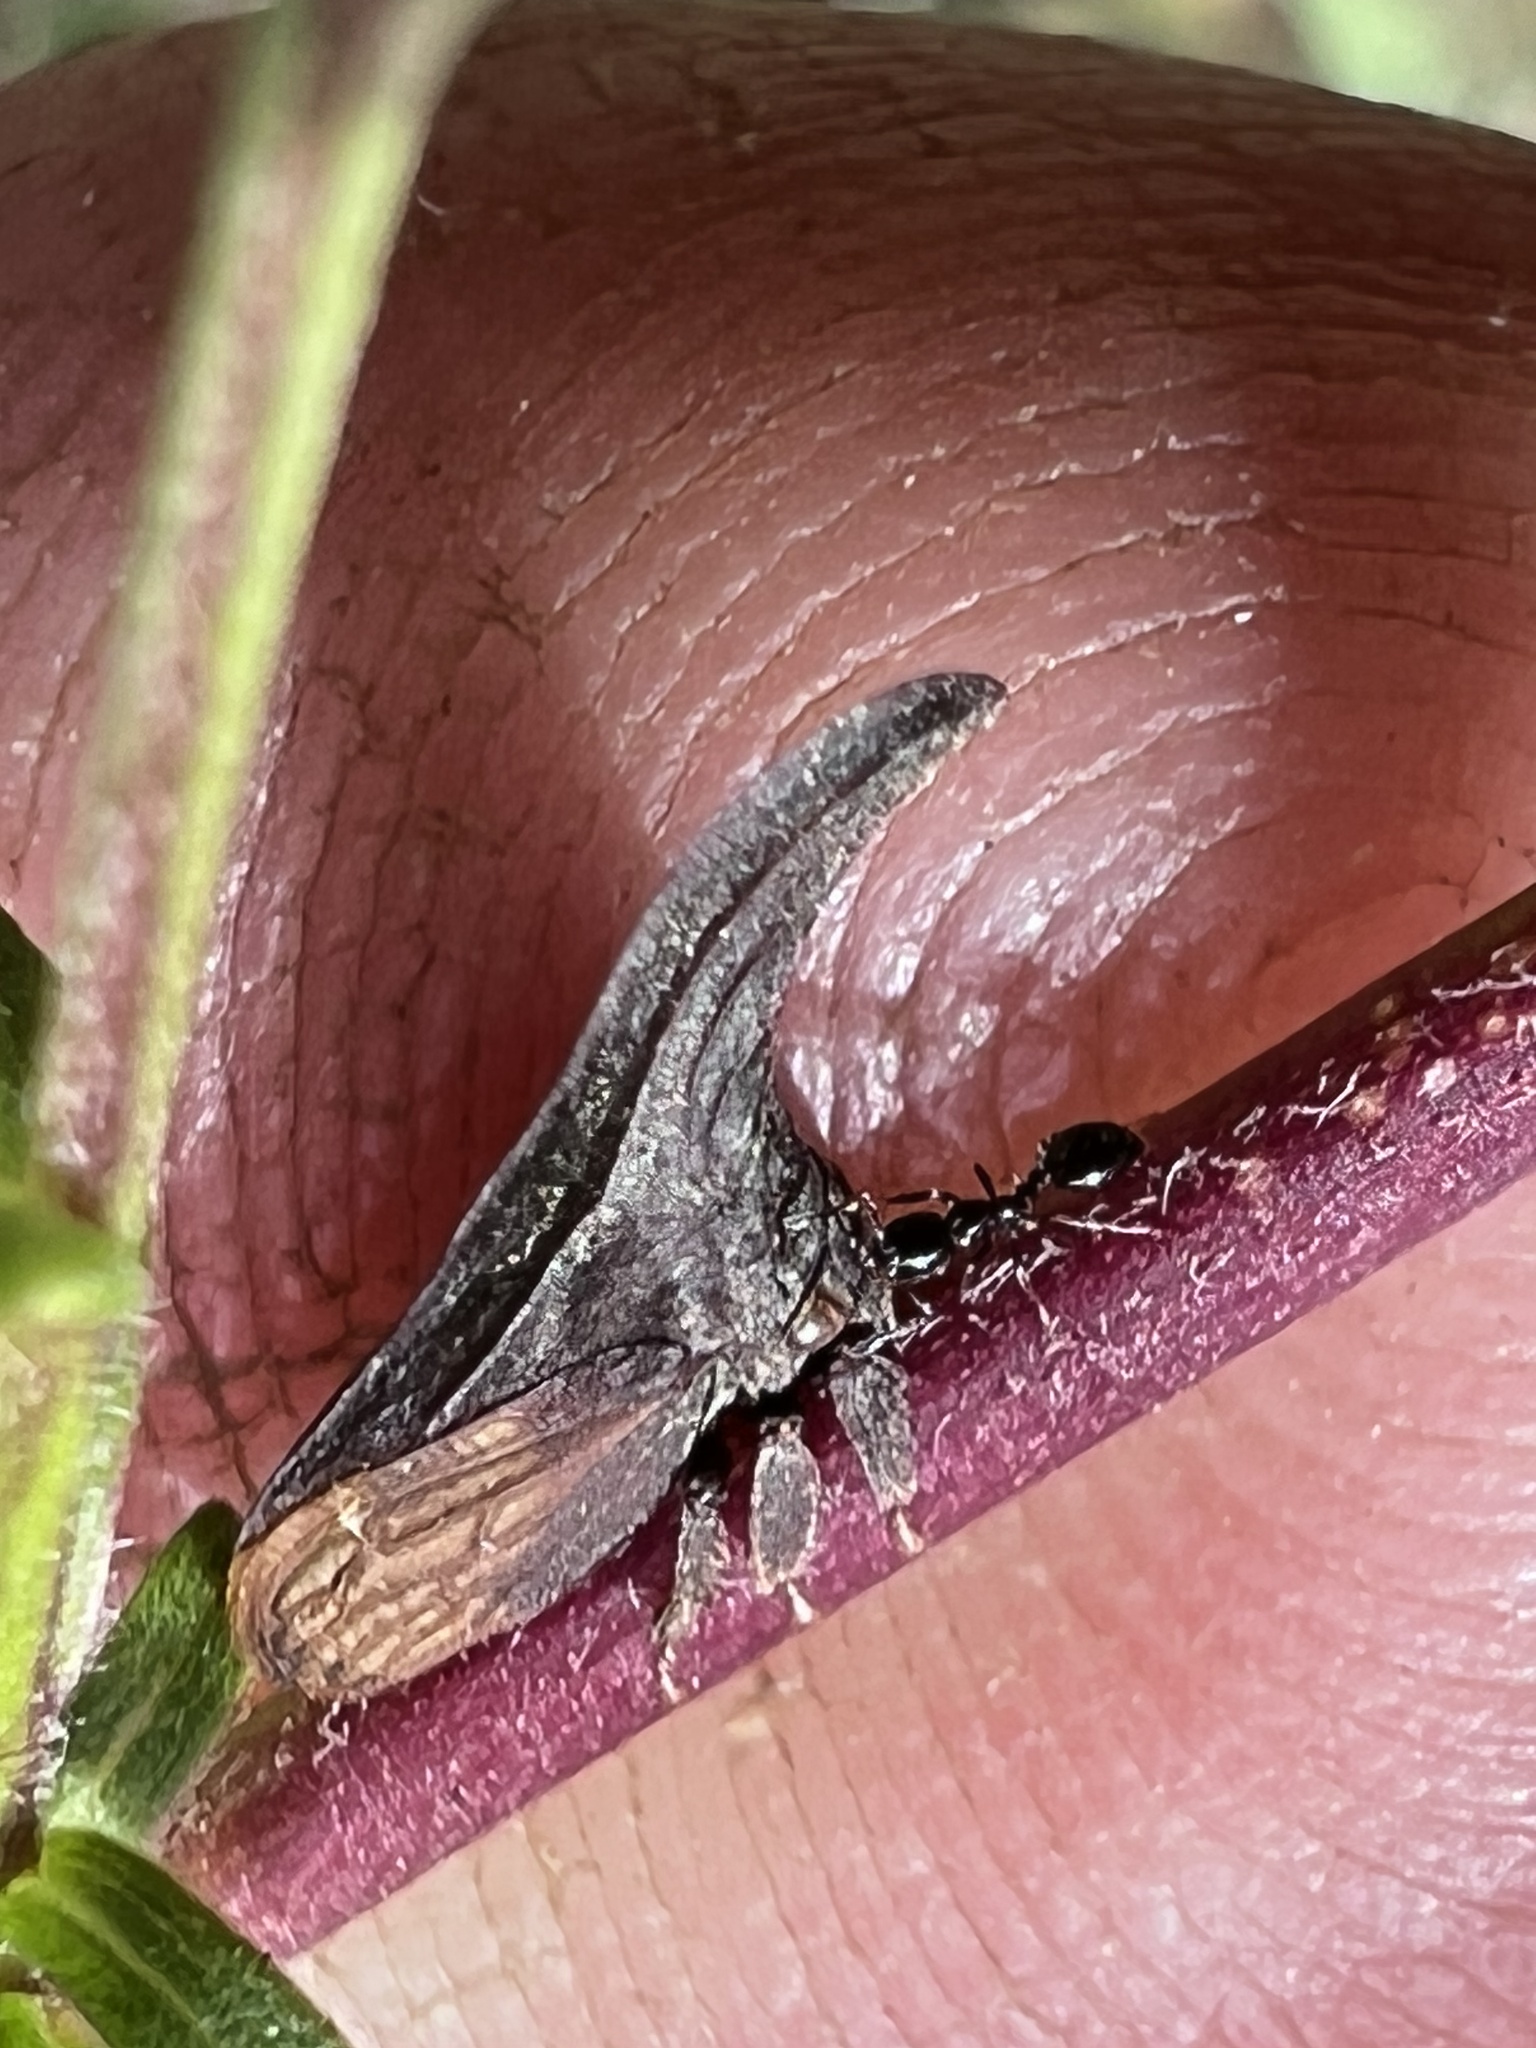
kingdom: Animalia
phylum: Arthropoda
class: Insecta
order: Hemiptera
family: Membracidae
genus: Enchenopa
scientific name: Enchenopa latipes
